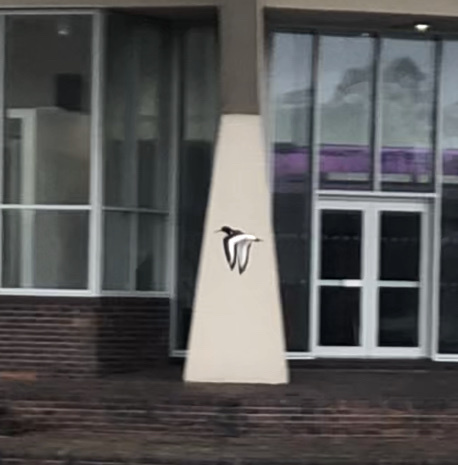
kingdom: Animalia
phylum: Chordata
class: Aves
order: Charadriiformes
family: Haematopodidae
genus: Haematopus
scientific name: Haematopus ostralegus
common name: Eurasian oystercatcher
